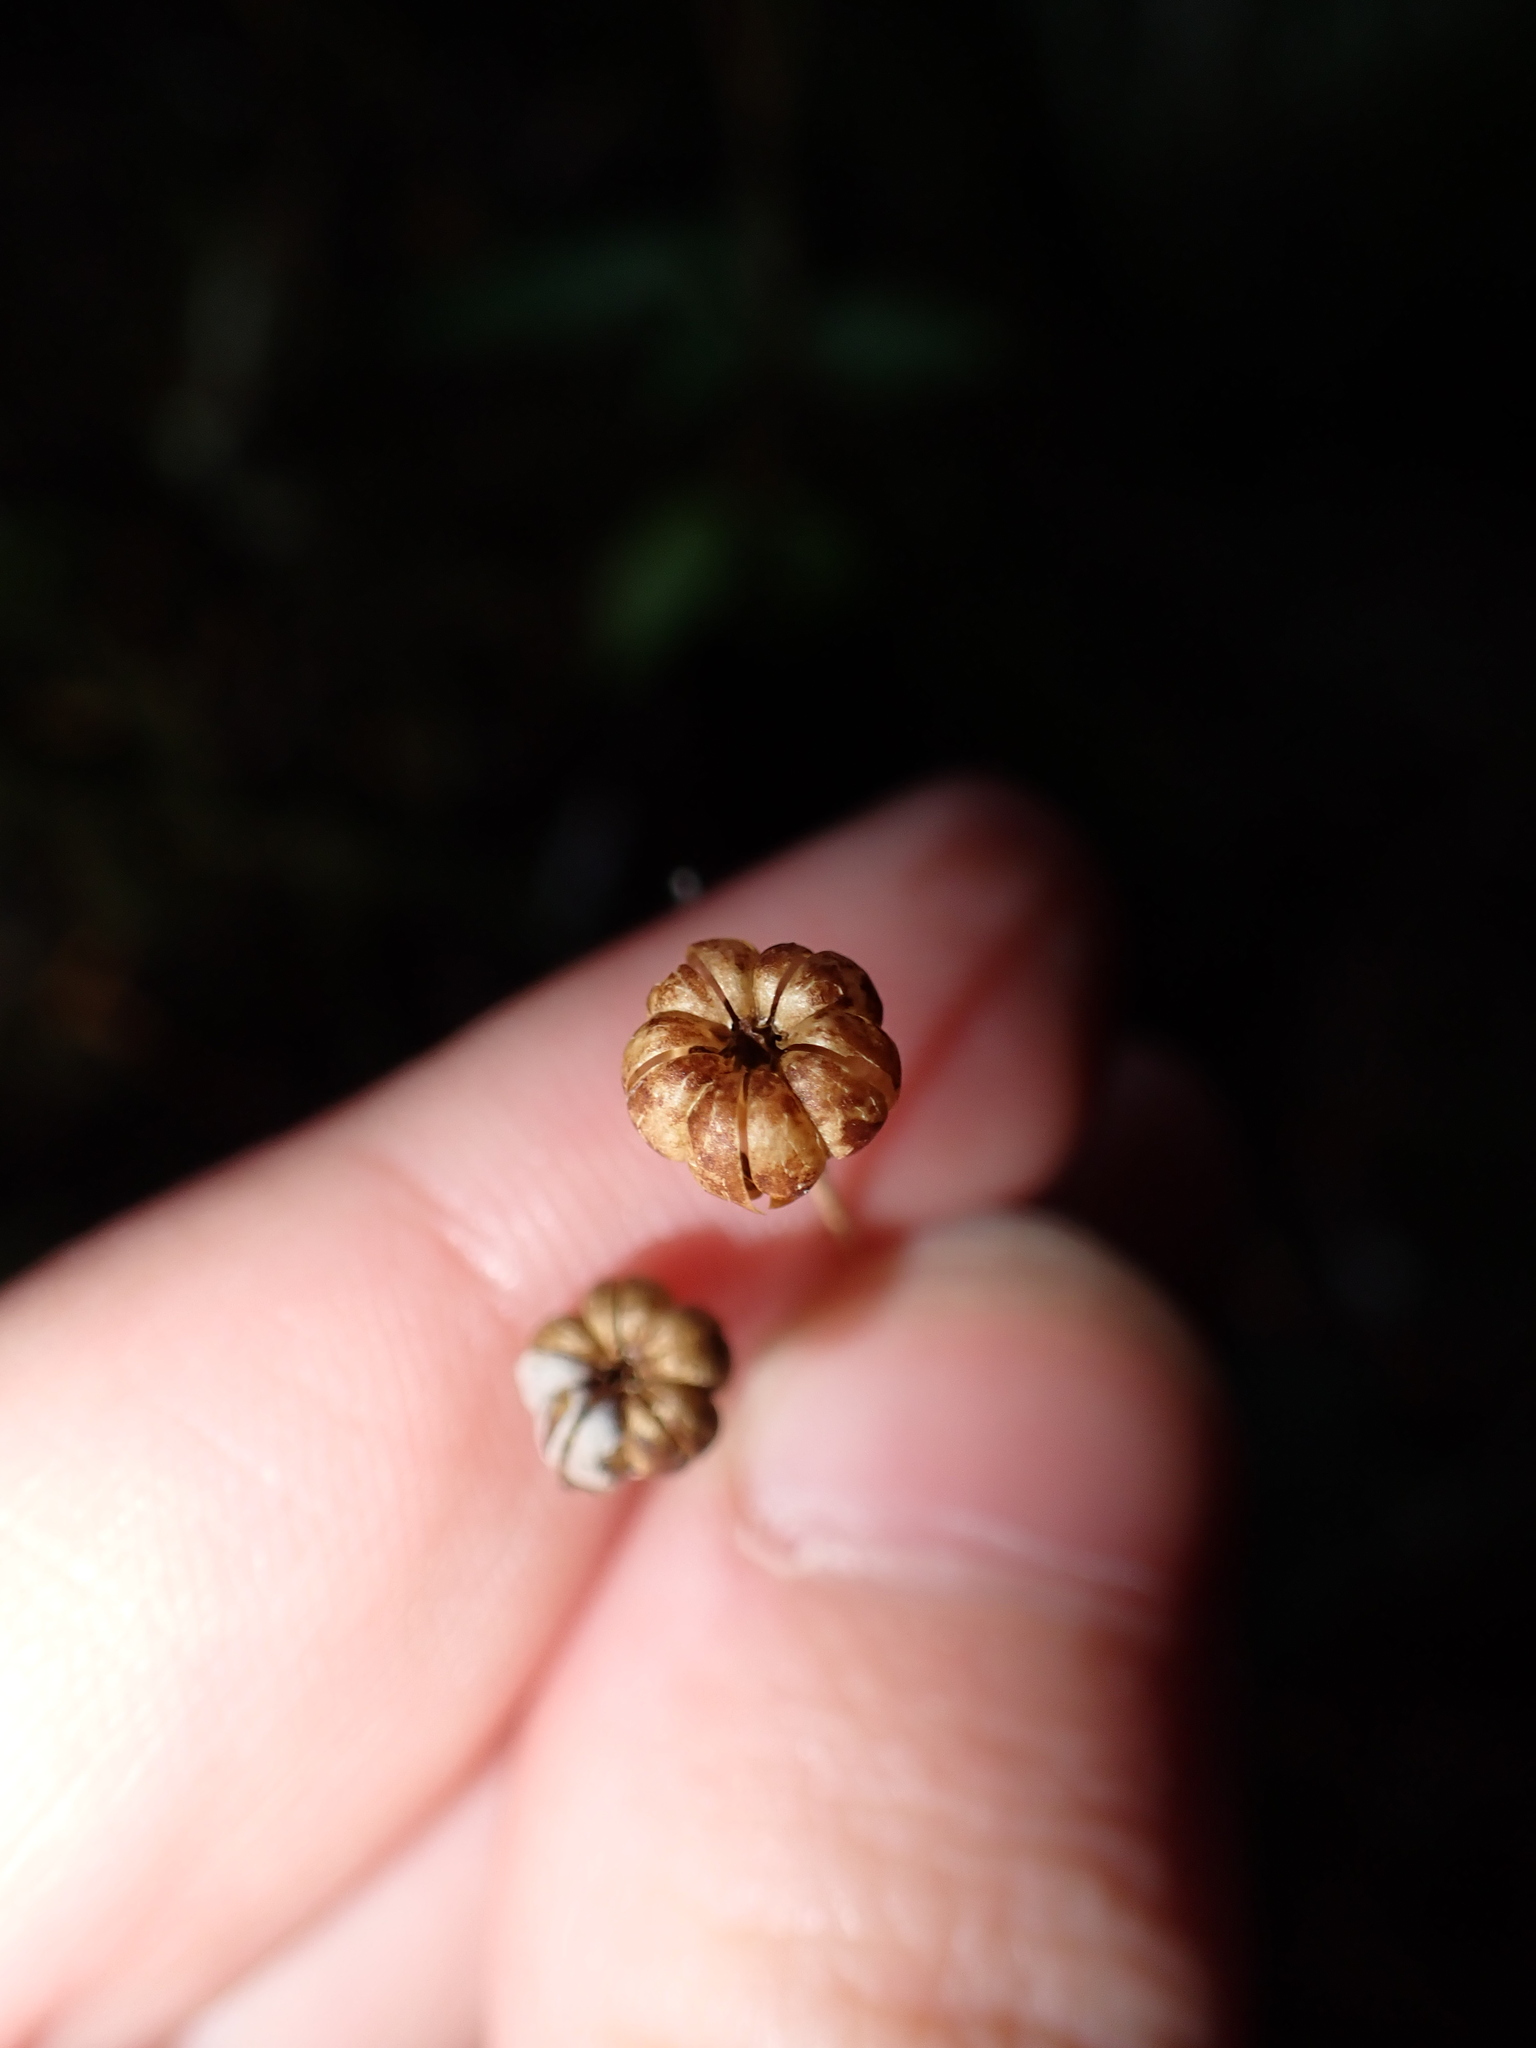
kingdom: Plantae
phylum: Tracheophyta
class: Magnoliopsida
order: Ericales
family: Ericaceae
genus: Chimaphila
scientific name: Chimaphila menziesii
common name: Menzies' pipsissewa
